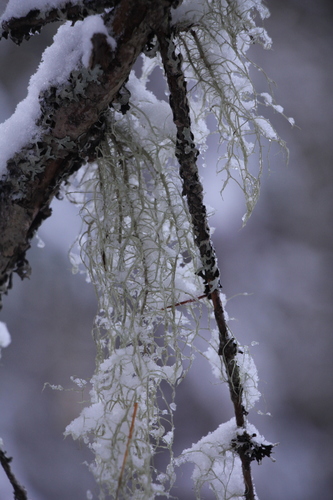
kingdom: Fungi
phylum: Ascomycota
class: Lecanoromycetes
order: Lecanorales
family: Parmeliaceae
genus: Usnea
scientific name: Usnea
